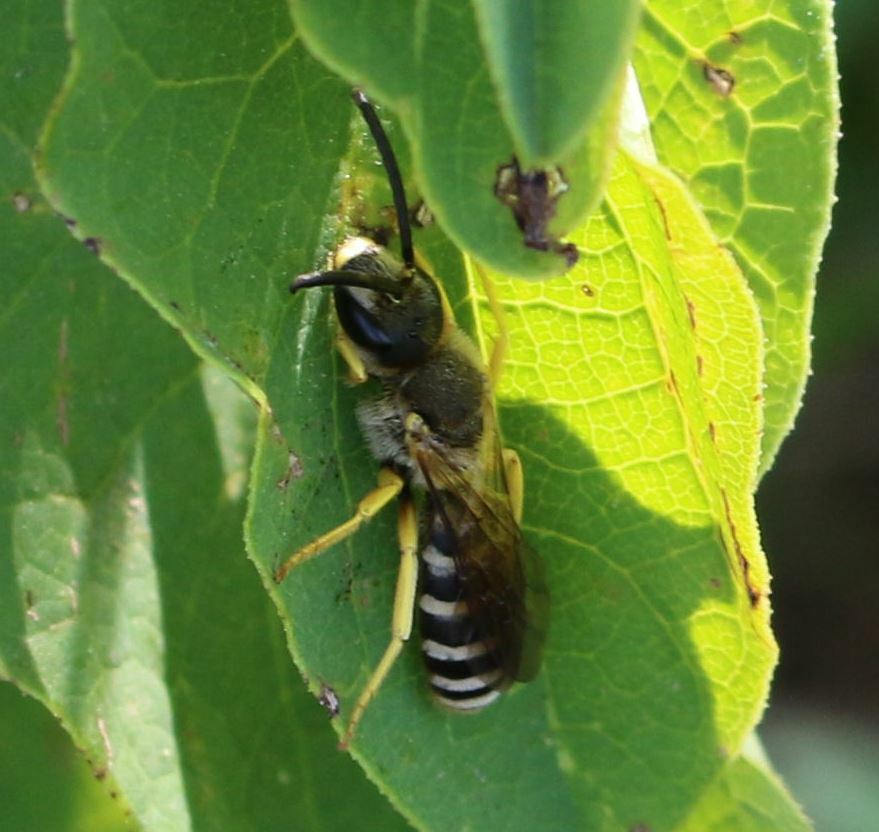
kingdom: Animalia
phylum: Arthropoda
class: Insecta
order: Hymenoptera
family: Halictidae
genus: Halictus
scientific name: Halictus scabiosae
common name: Great banded furrow bee
